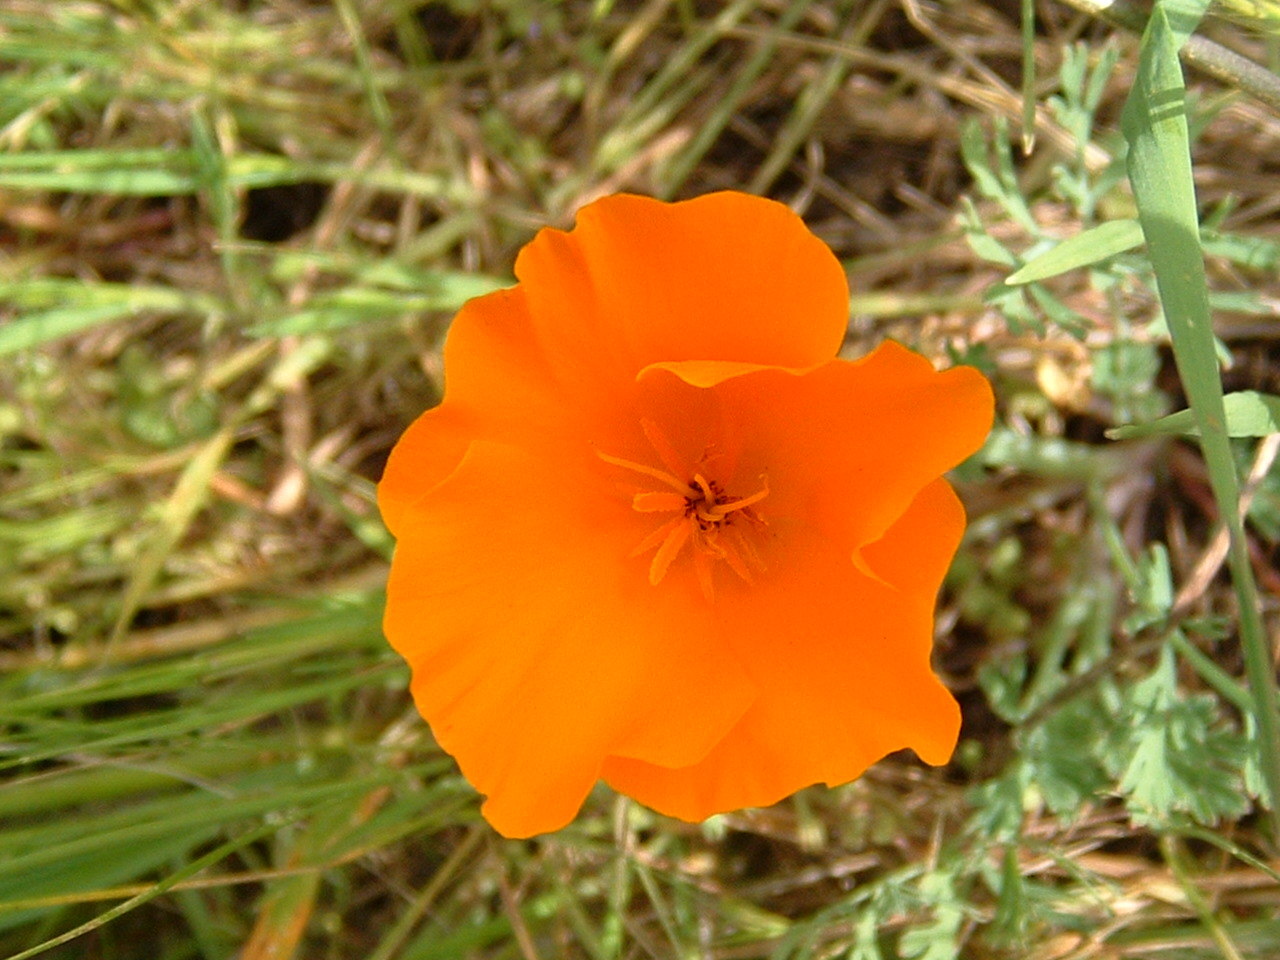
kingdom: Plantae
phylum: Tracheophyta
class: Magnoliopsida
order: Ranunculales
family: Papaveraceae
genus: Eschscholzia
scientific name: Eschscholzia californica
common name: California poppy
